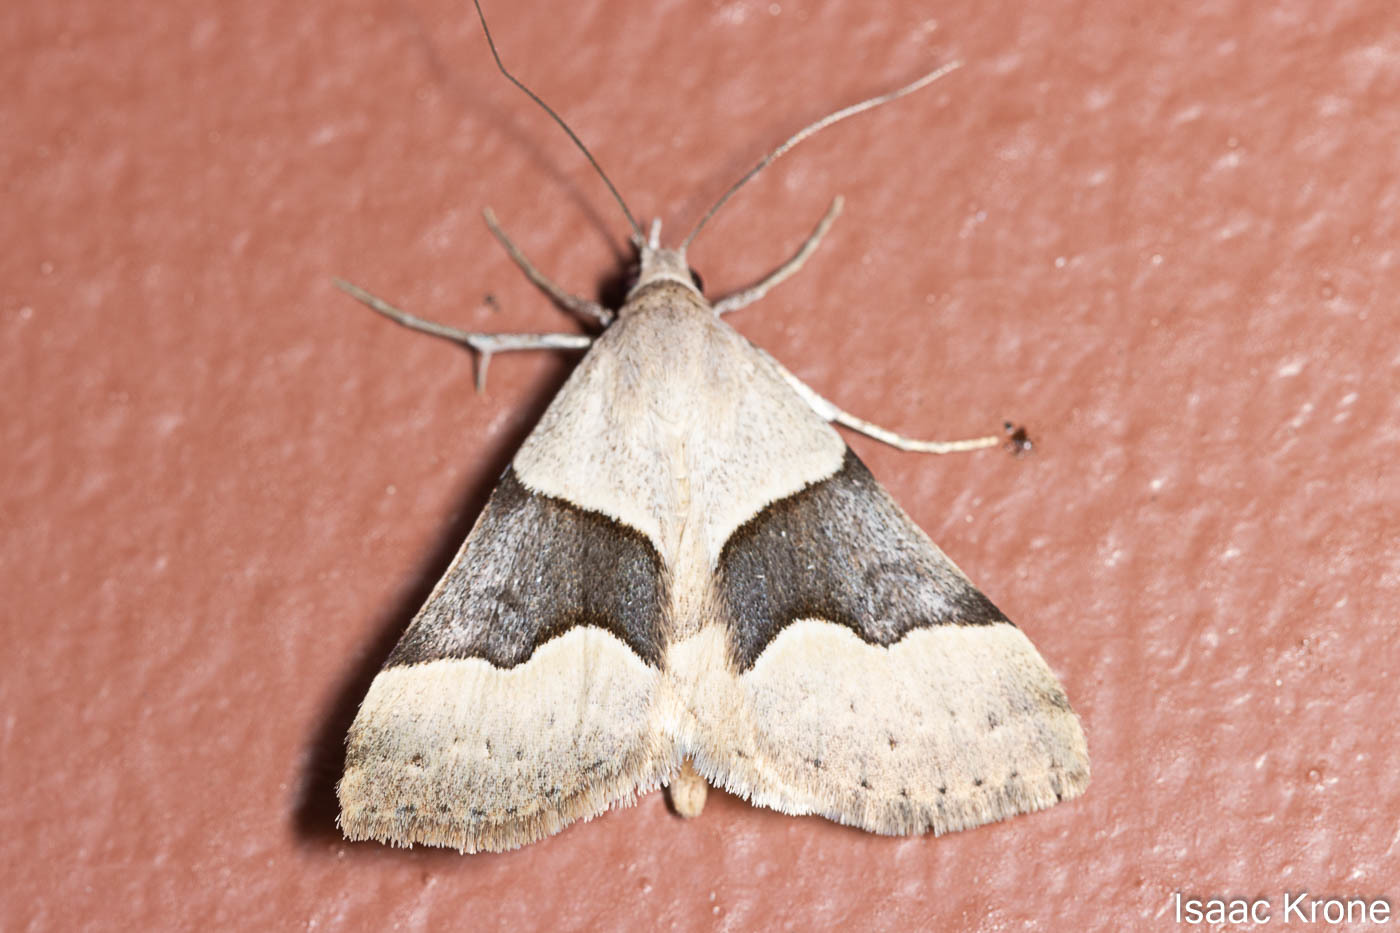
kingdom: Animalia
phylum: Arthropoda
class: Insecta
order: Lepidoptera
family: Erebidae
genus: Hemeroplanis
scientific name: Hemeroplanis incusalis
